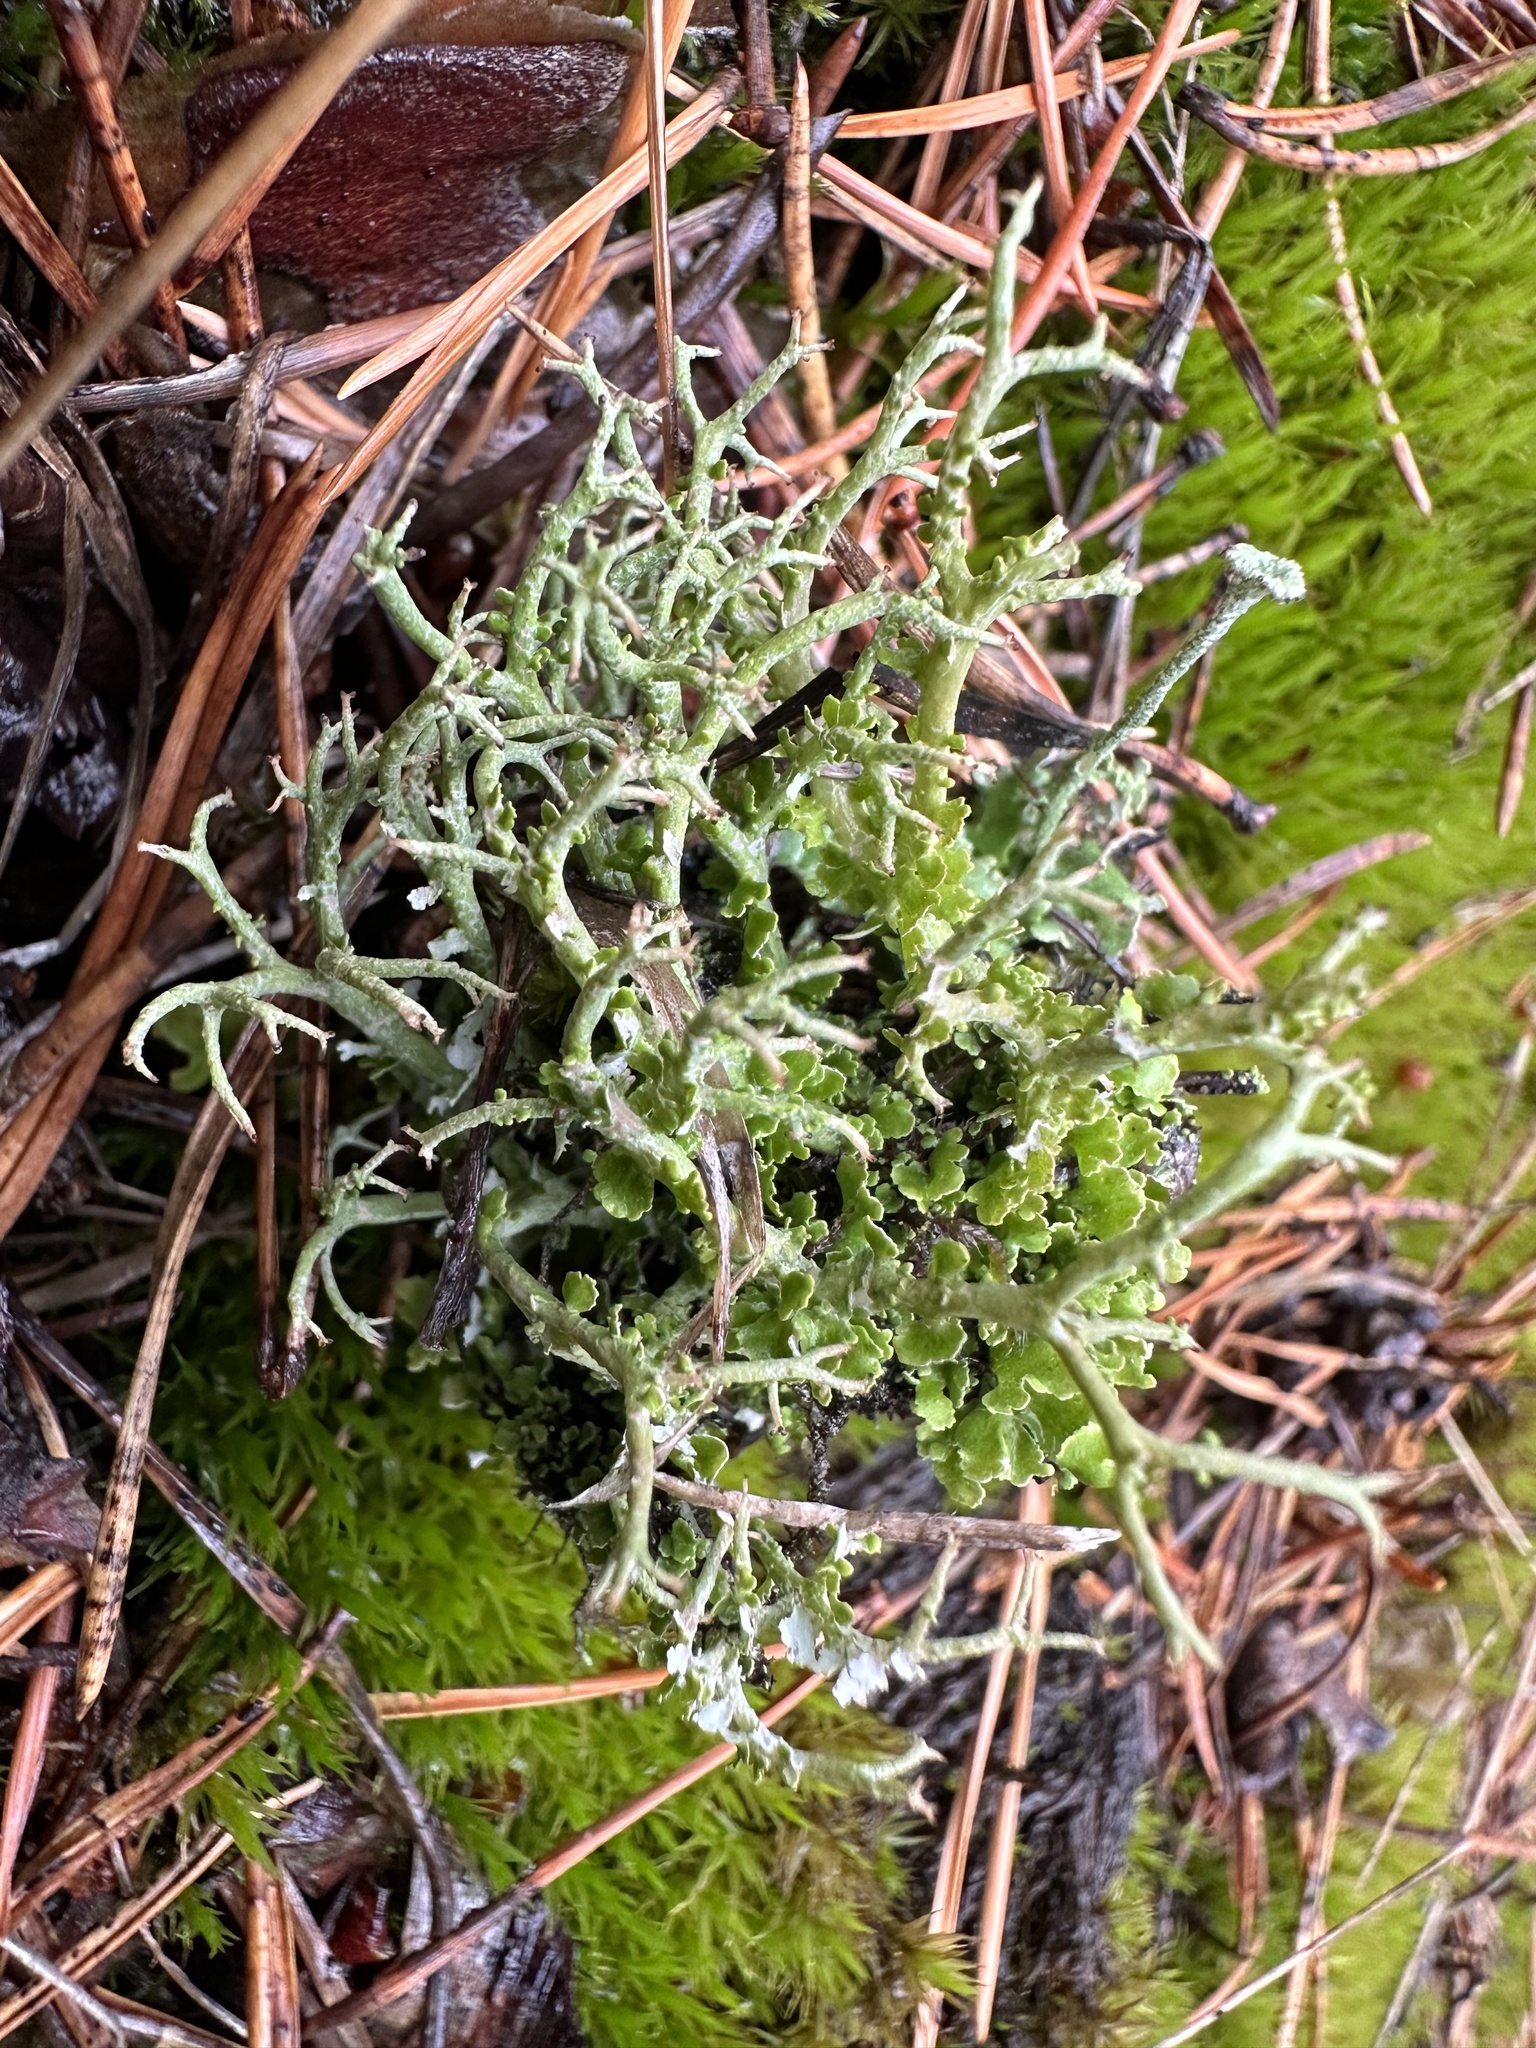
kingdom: Fungi
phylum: Ascomycota
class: Lecanoromycetes
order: Lecanorales
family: Cladoniaceae
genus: Cladonia
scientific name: Cladonia furcata
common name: Many-forked cladonia
